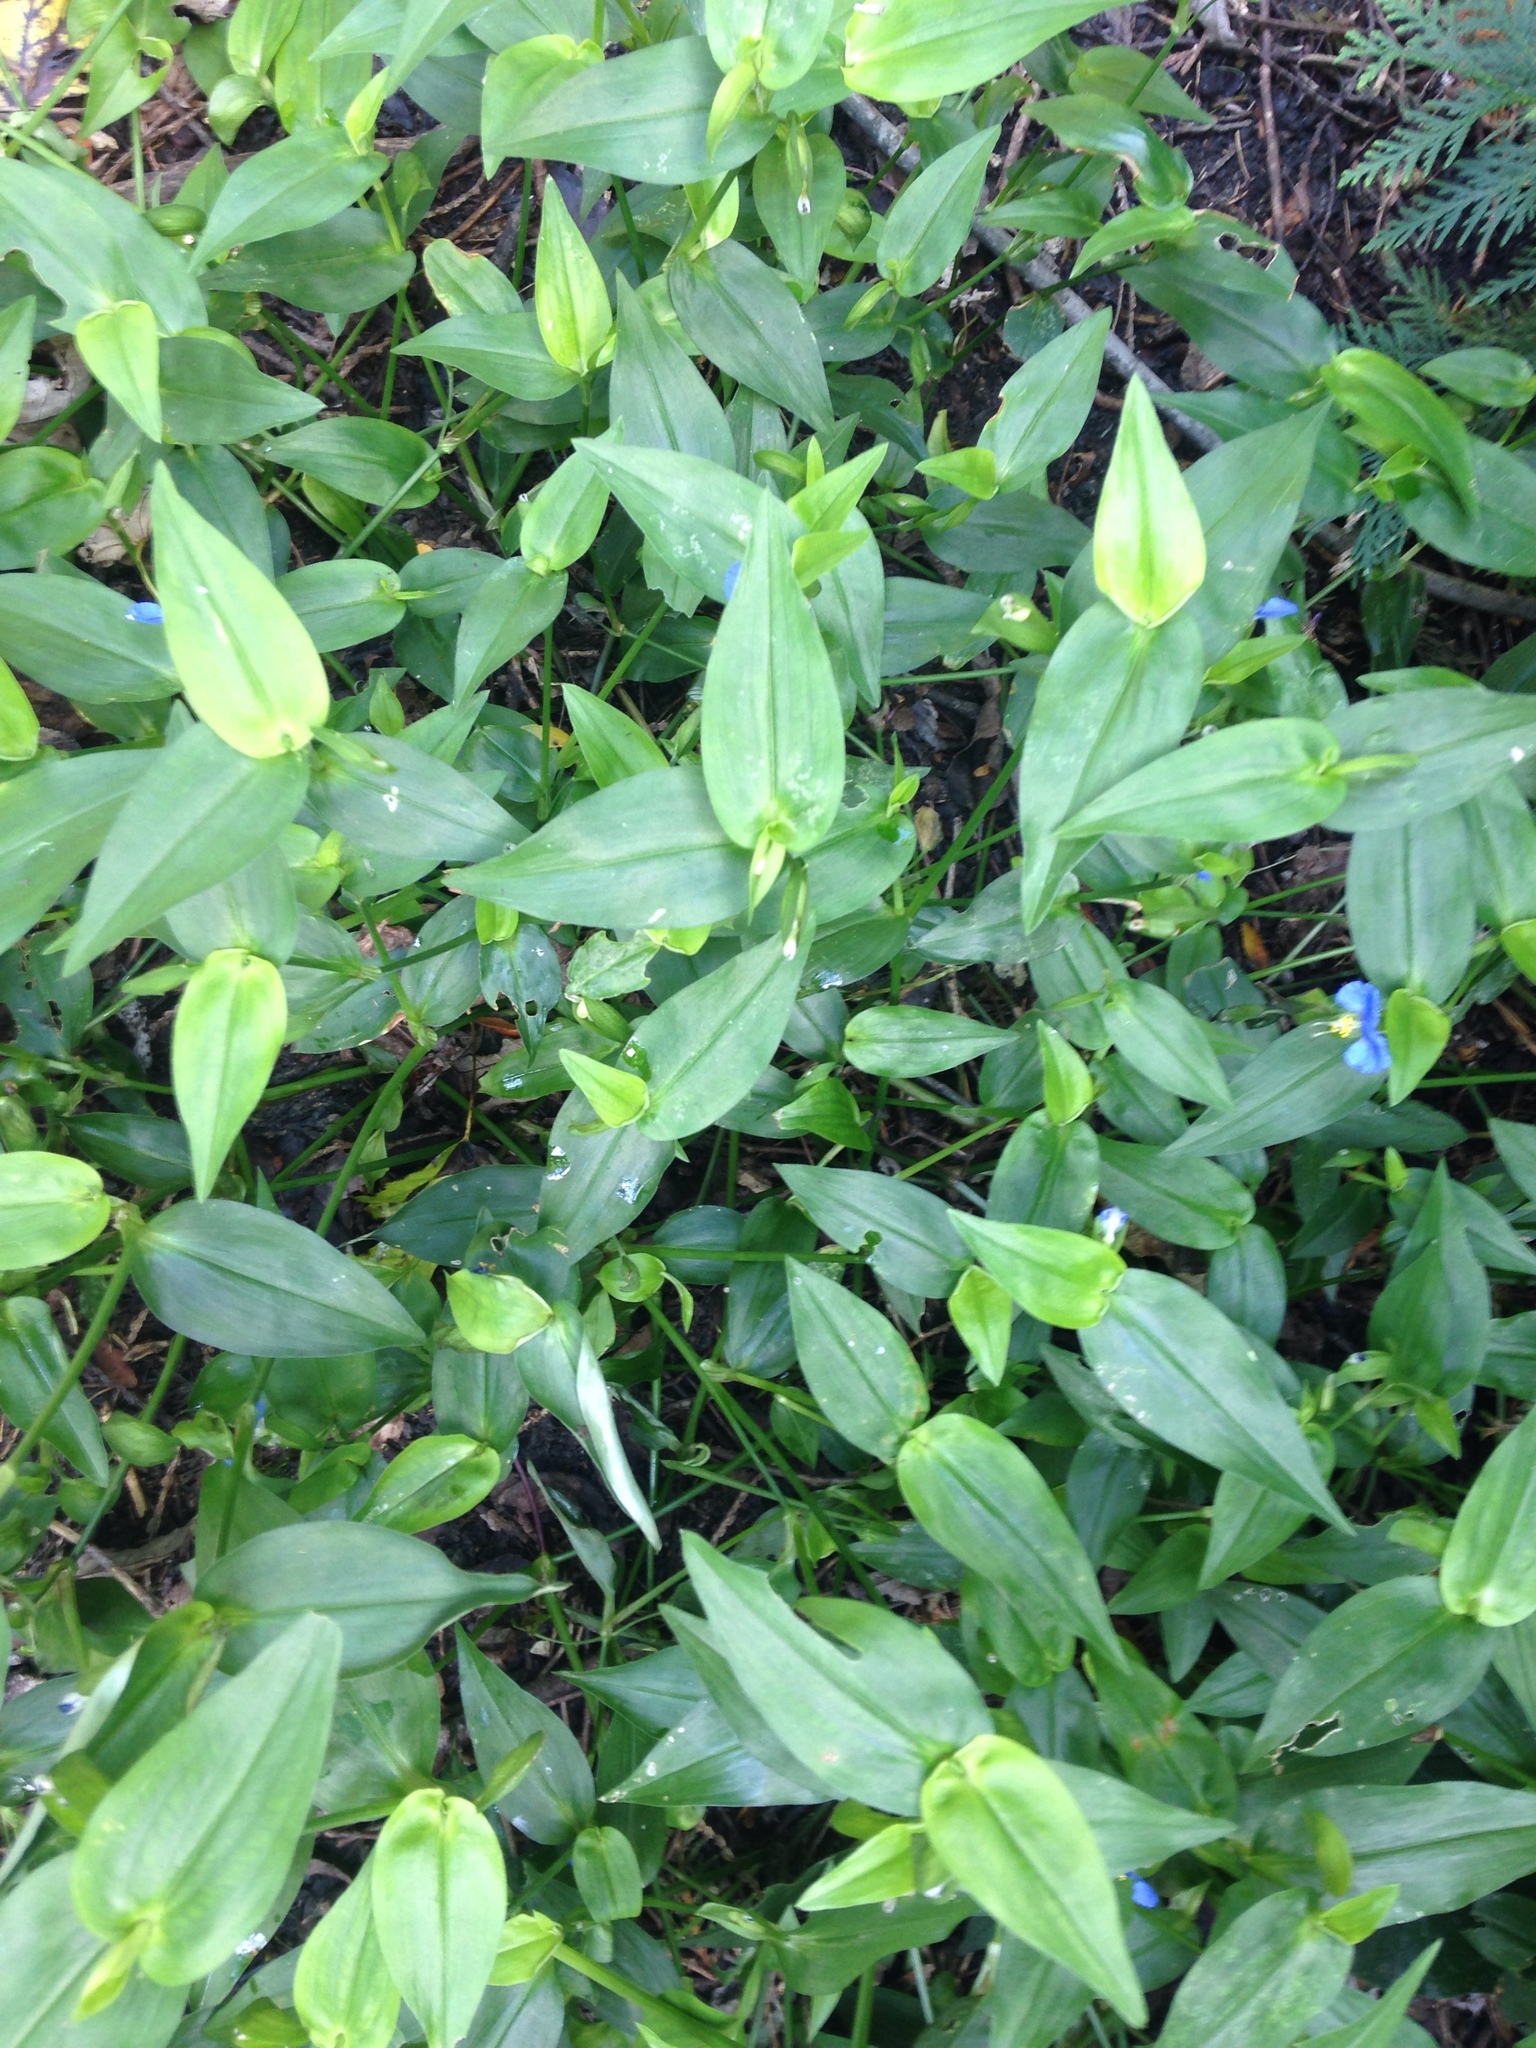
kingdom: Plantae
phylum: Tracheophyta
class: Liliopsida
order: Commelinales
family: Commelinaceae
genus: Commelina
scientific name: Commelina communis
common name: Asiatic dayflower
